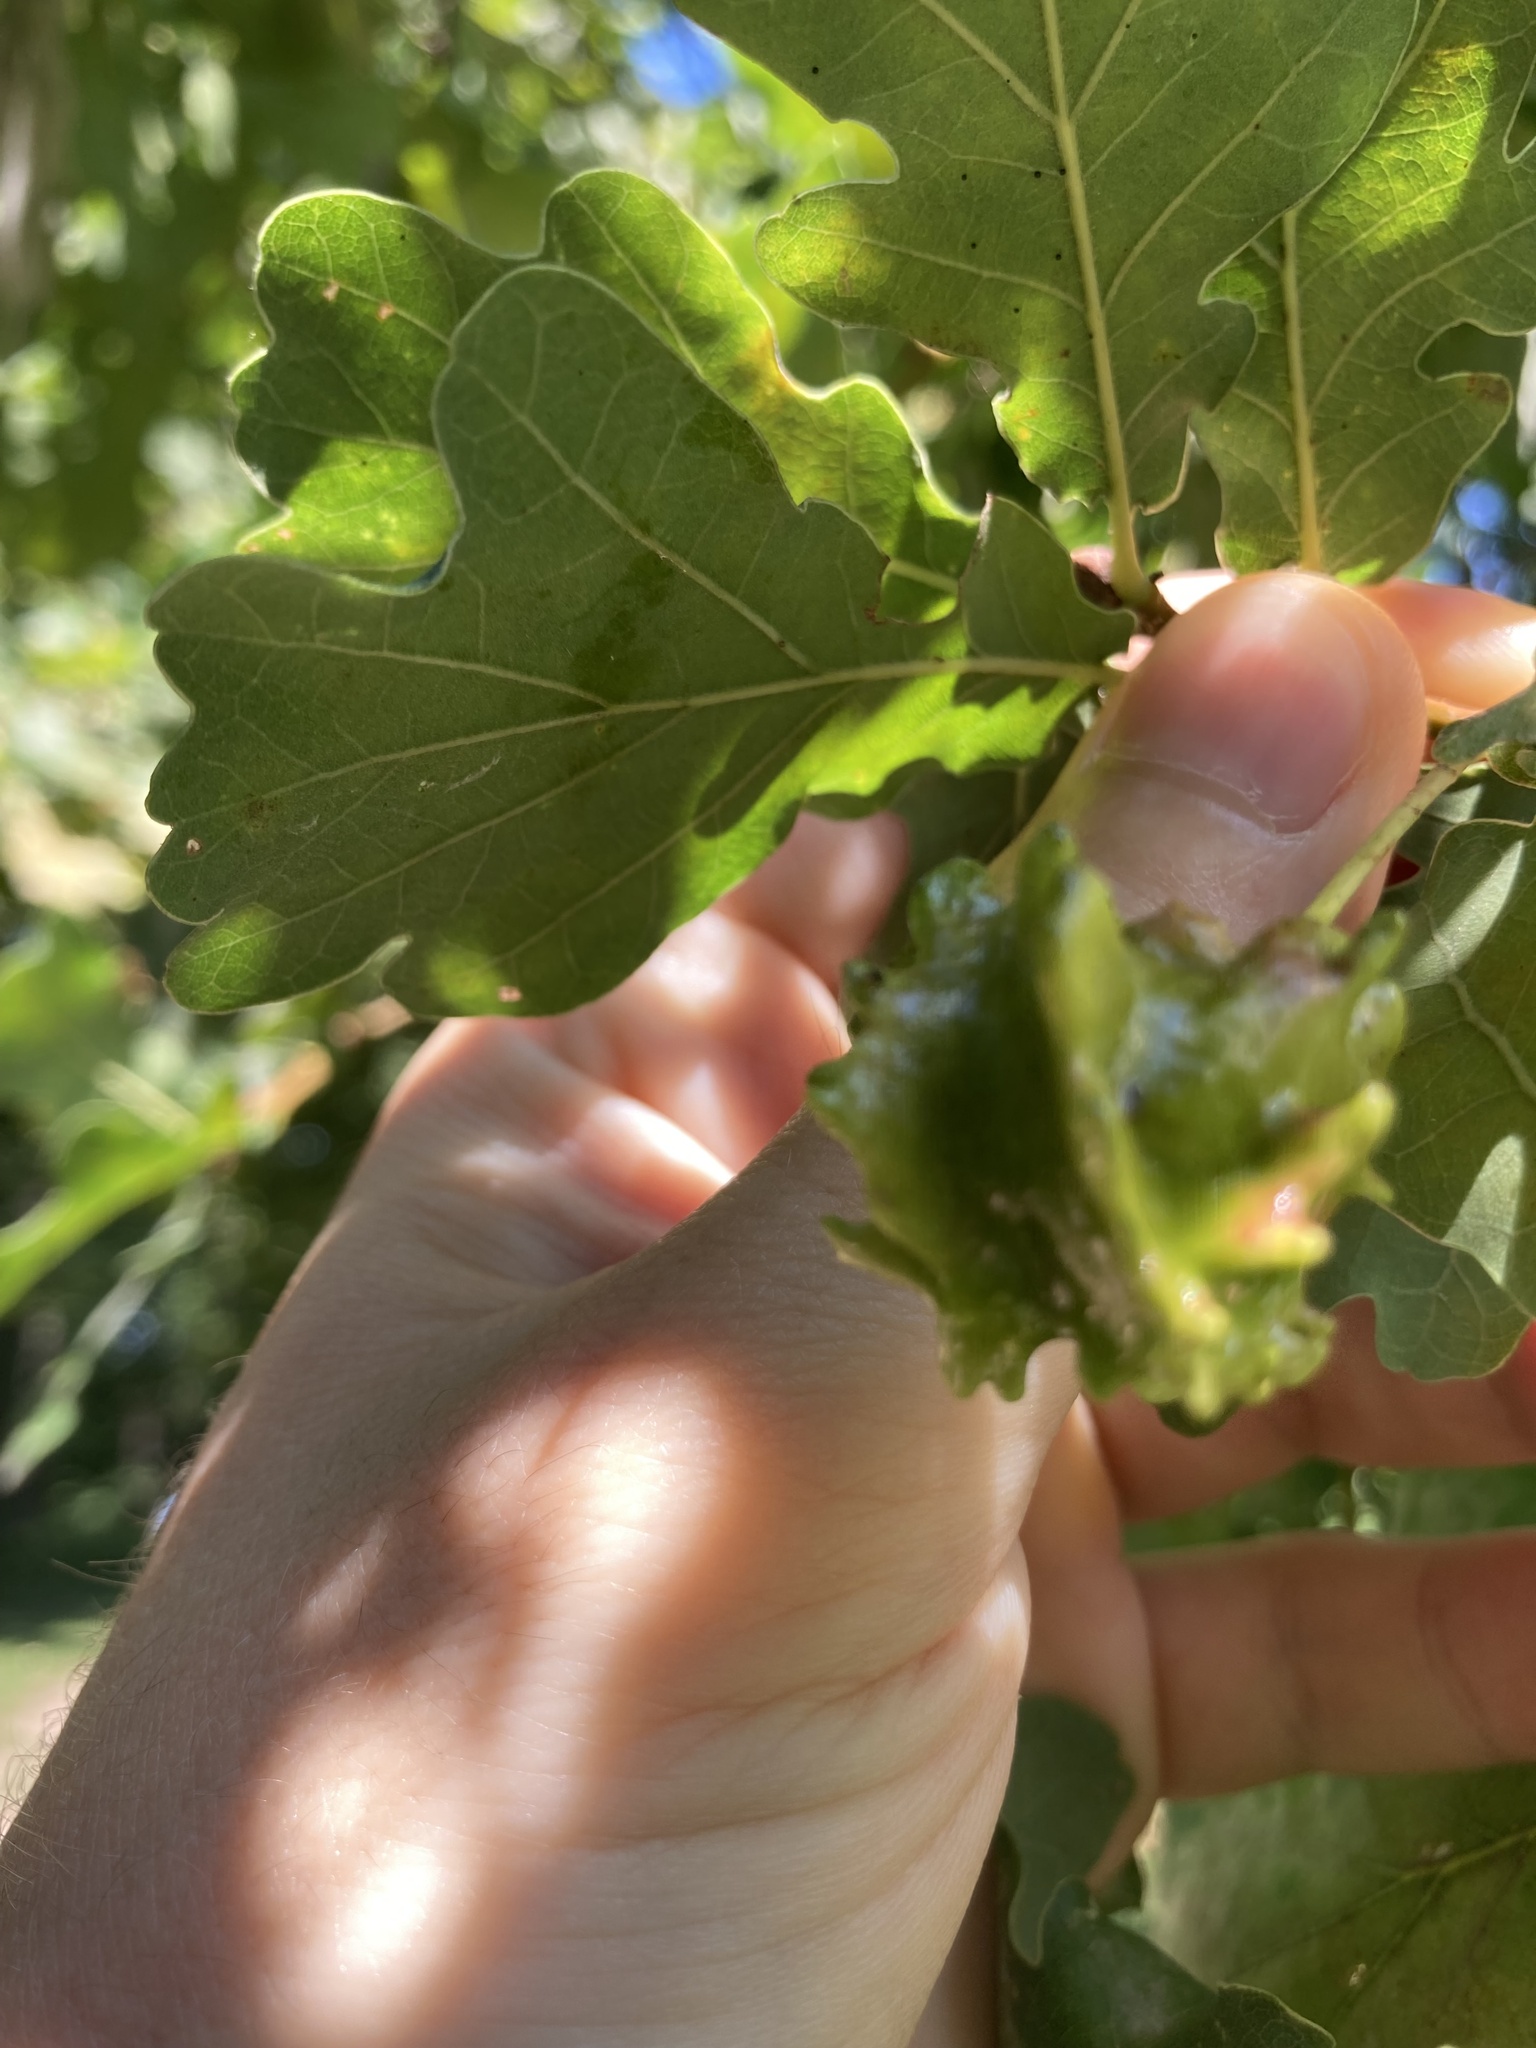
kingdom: Animalia
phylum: Arthropoda
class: Insecta
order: Hymenoptera
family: Cynipidae
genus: Andricus
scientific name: Andricus quercuscalicis
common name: Knopper gall
